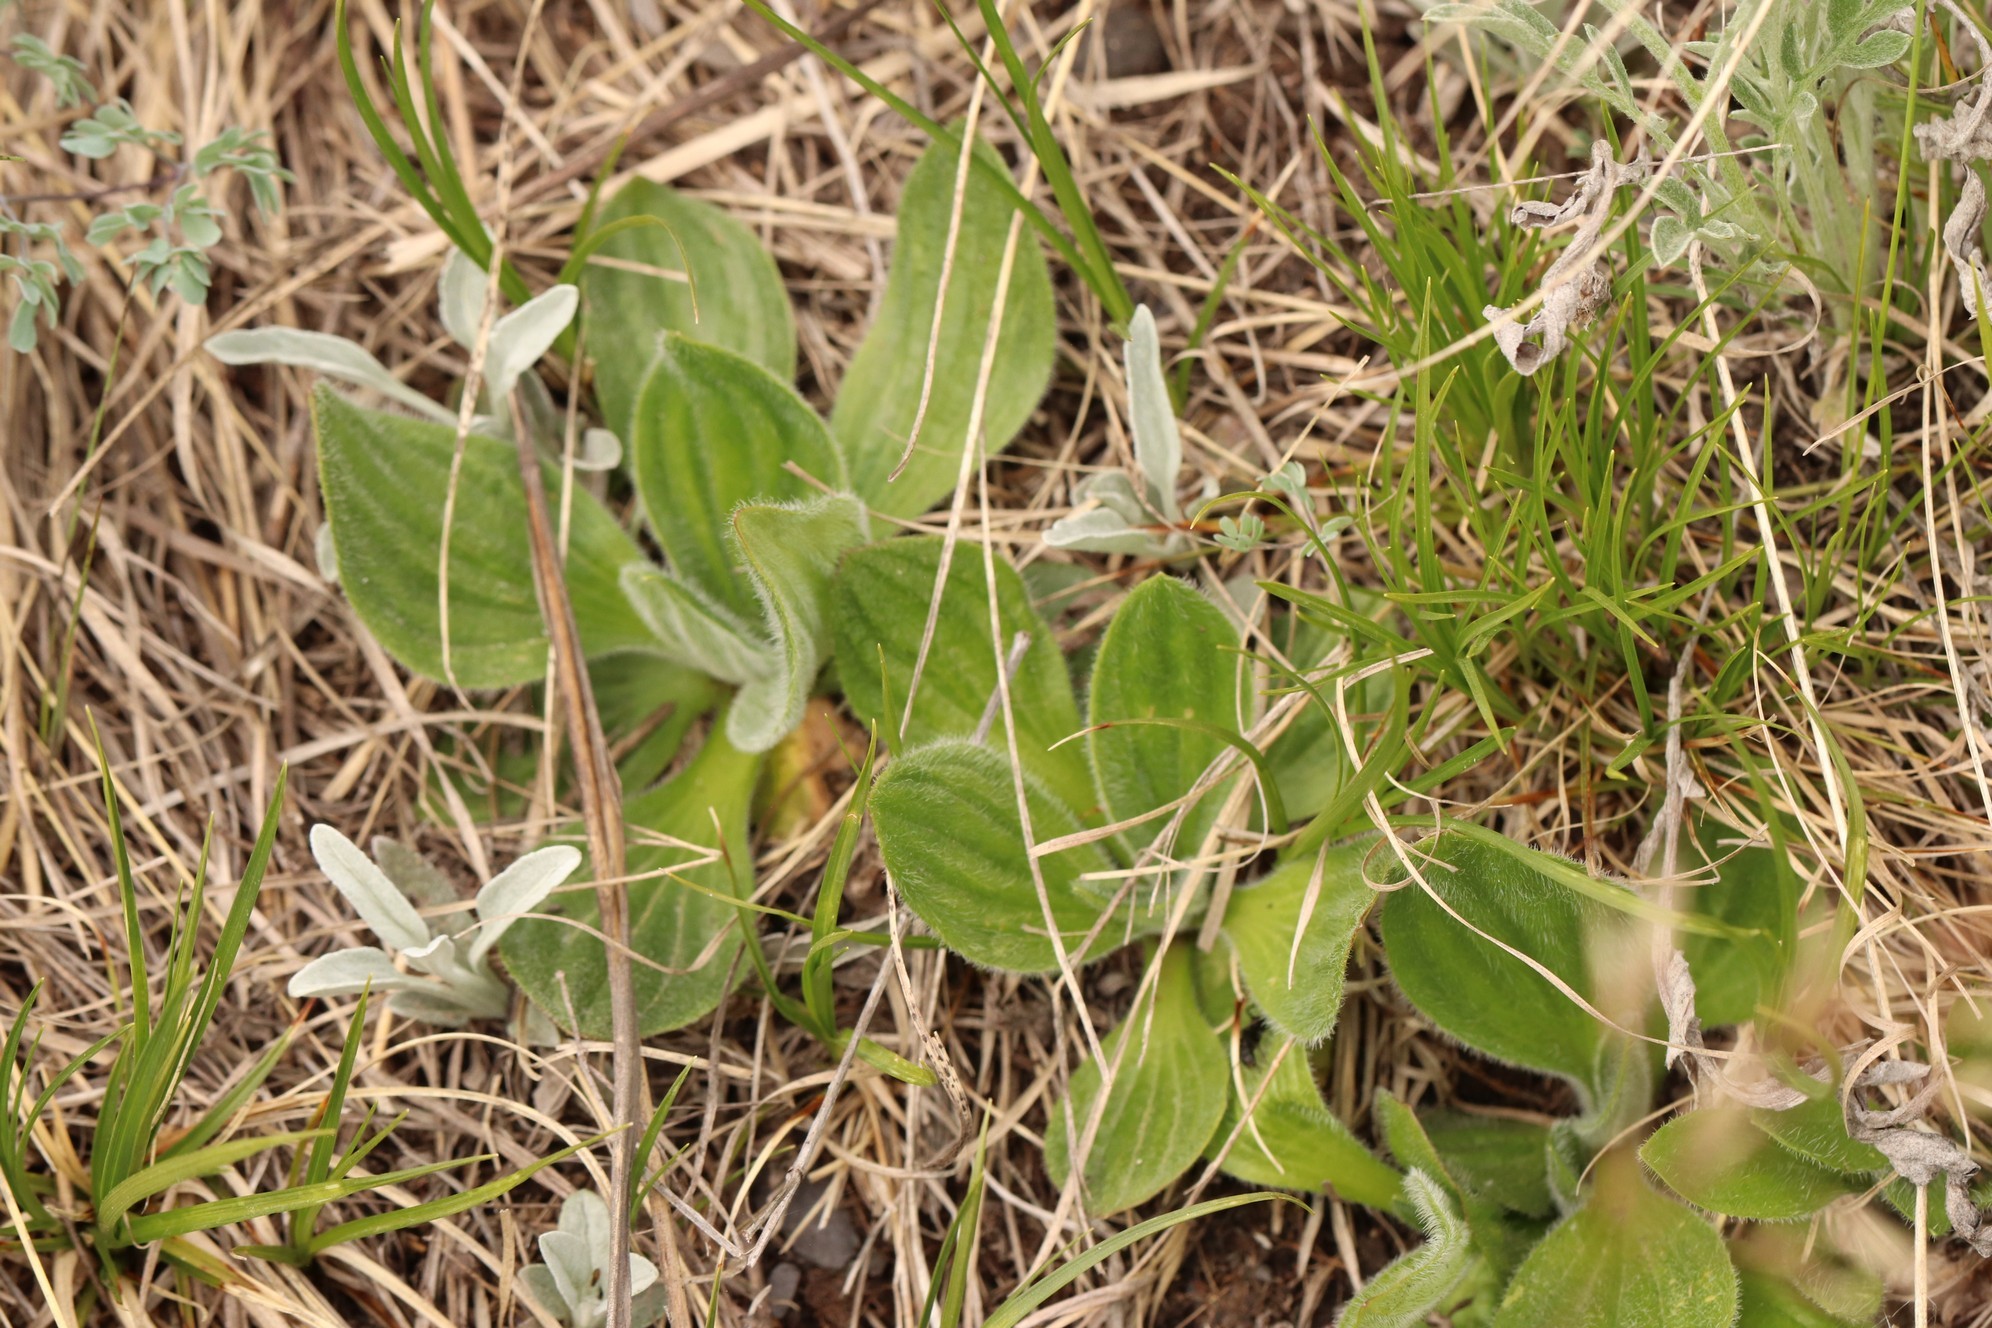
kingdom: Plantae
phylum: Tracheophyta
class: Magnoliopsida
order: Lamiales
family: Plantaginaceae
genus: Plantago
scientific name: Plantago media
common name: Hoary plantain
